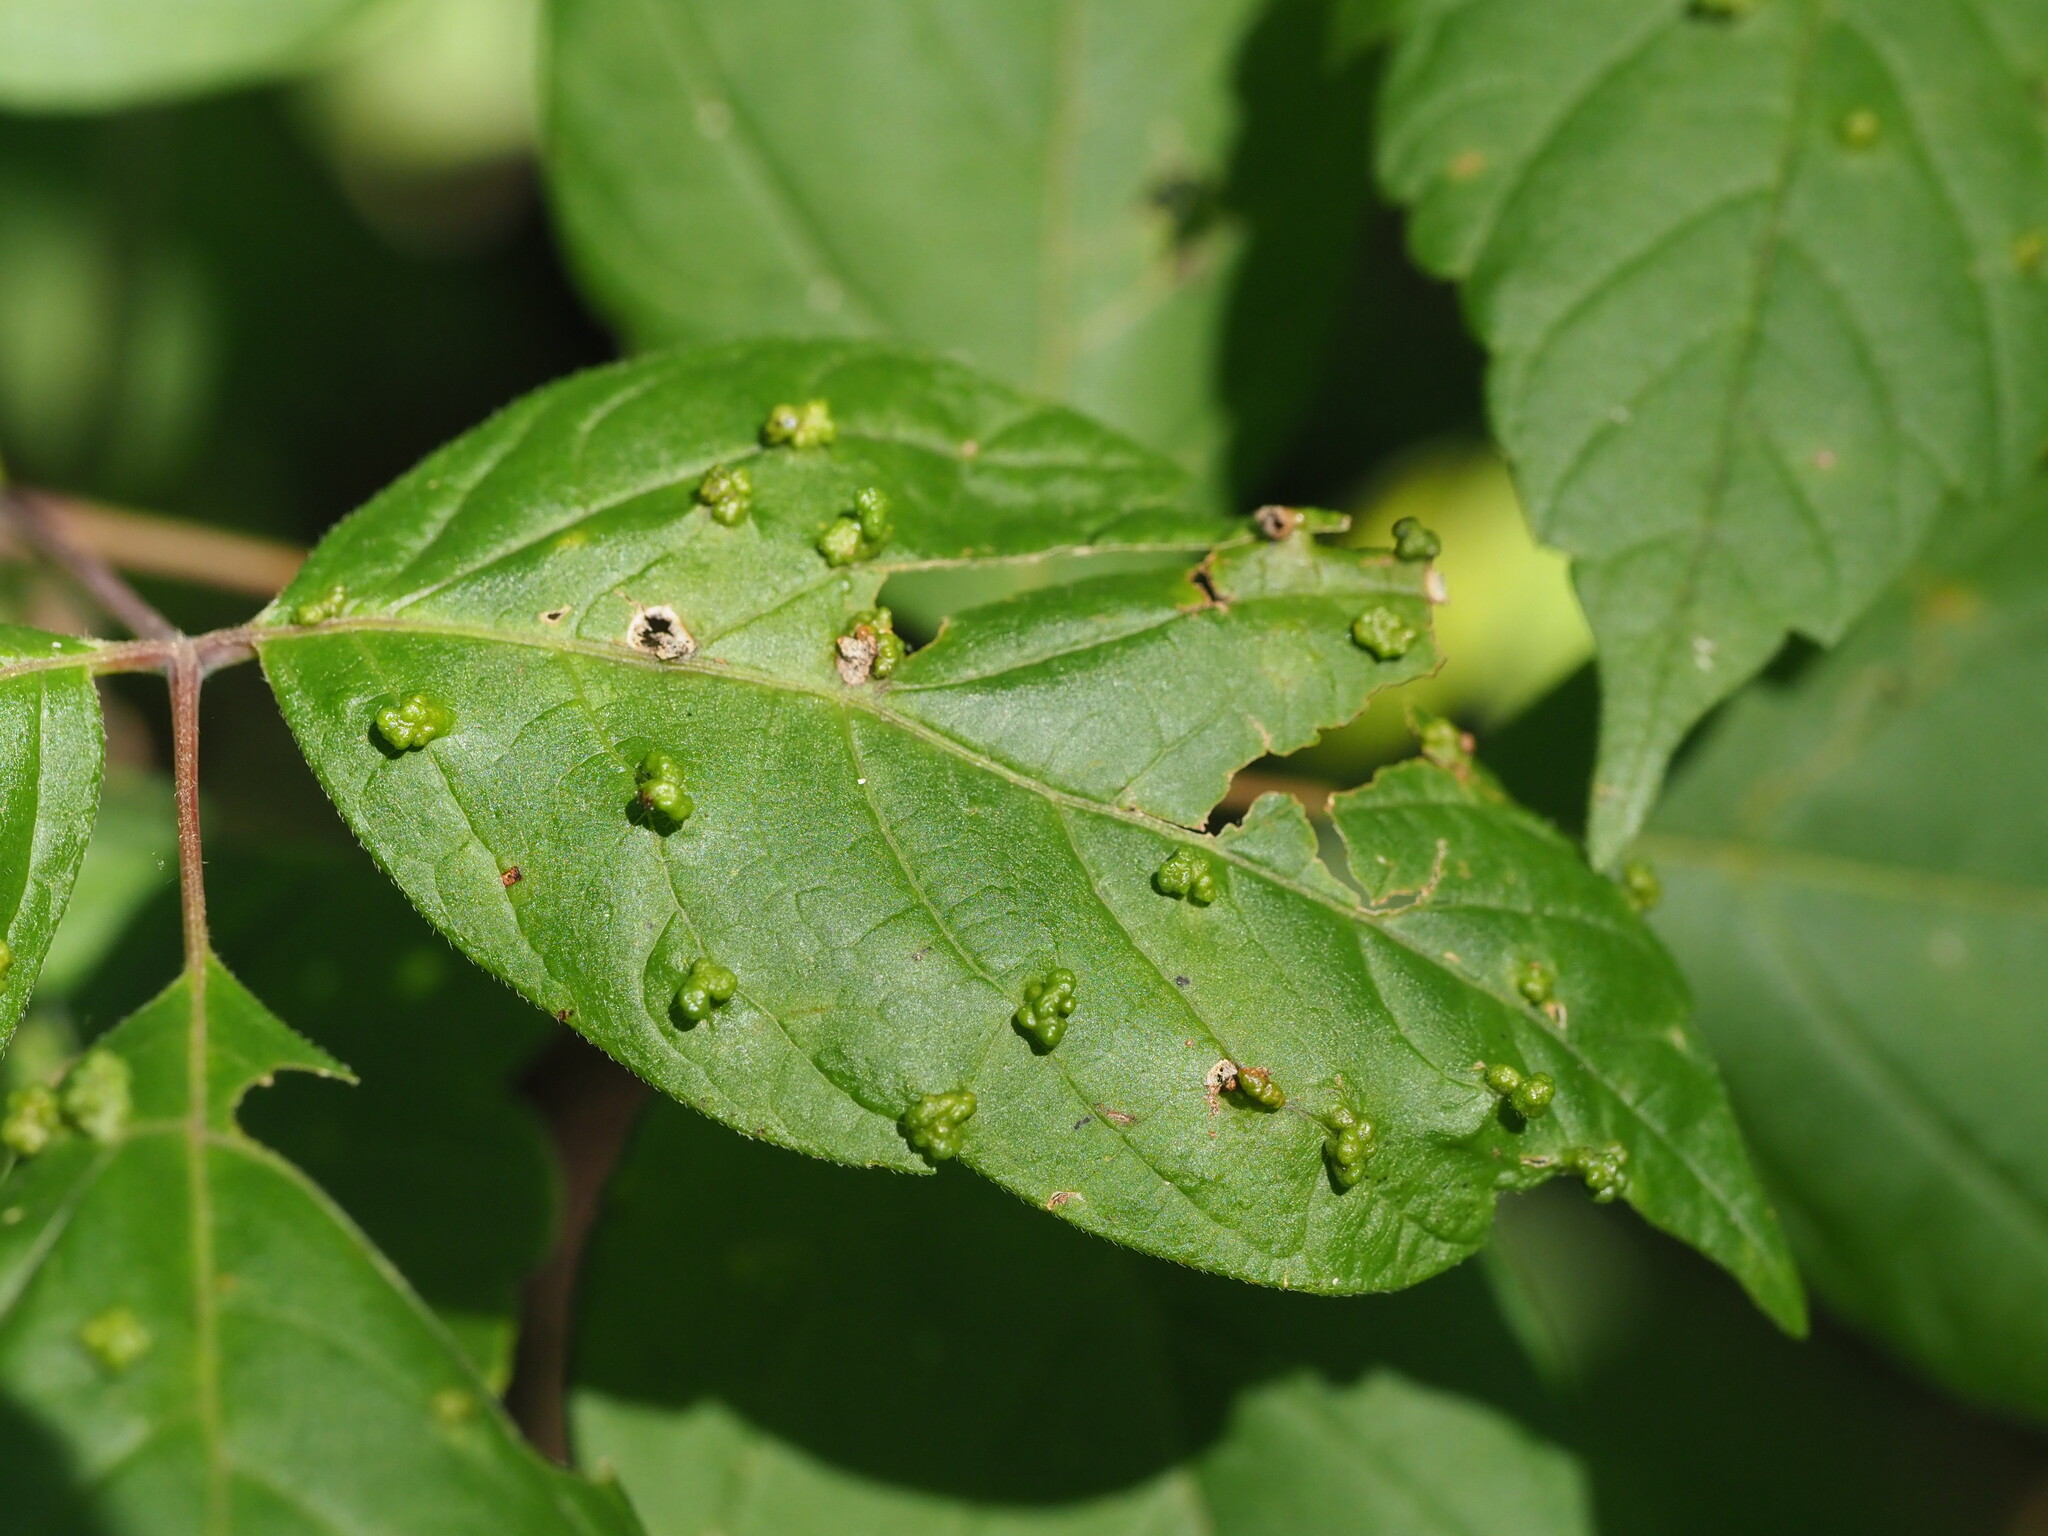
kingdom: Animalia
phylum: Arthropoda
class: Arachnida
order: Trombidiformes
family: Eriophyidae
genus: Aceria
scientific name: Aceria
